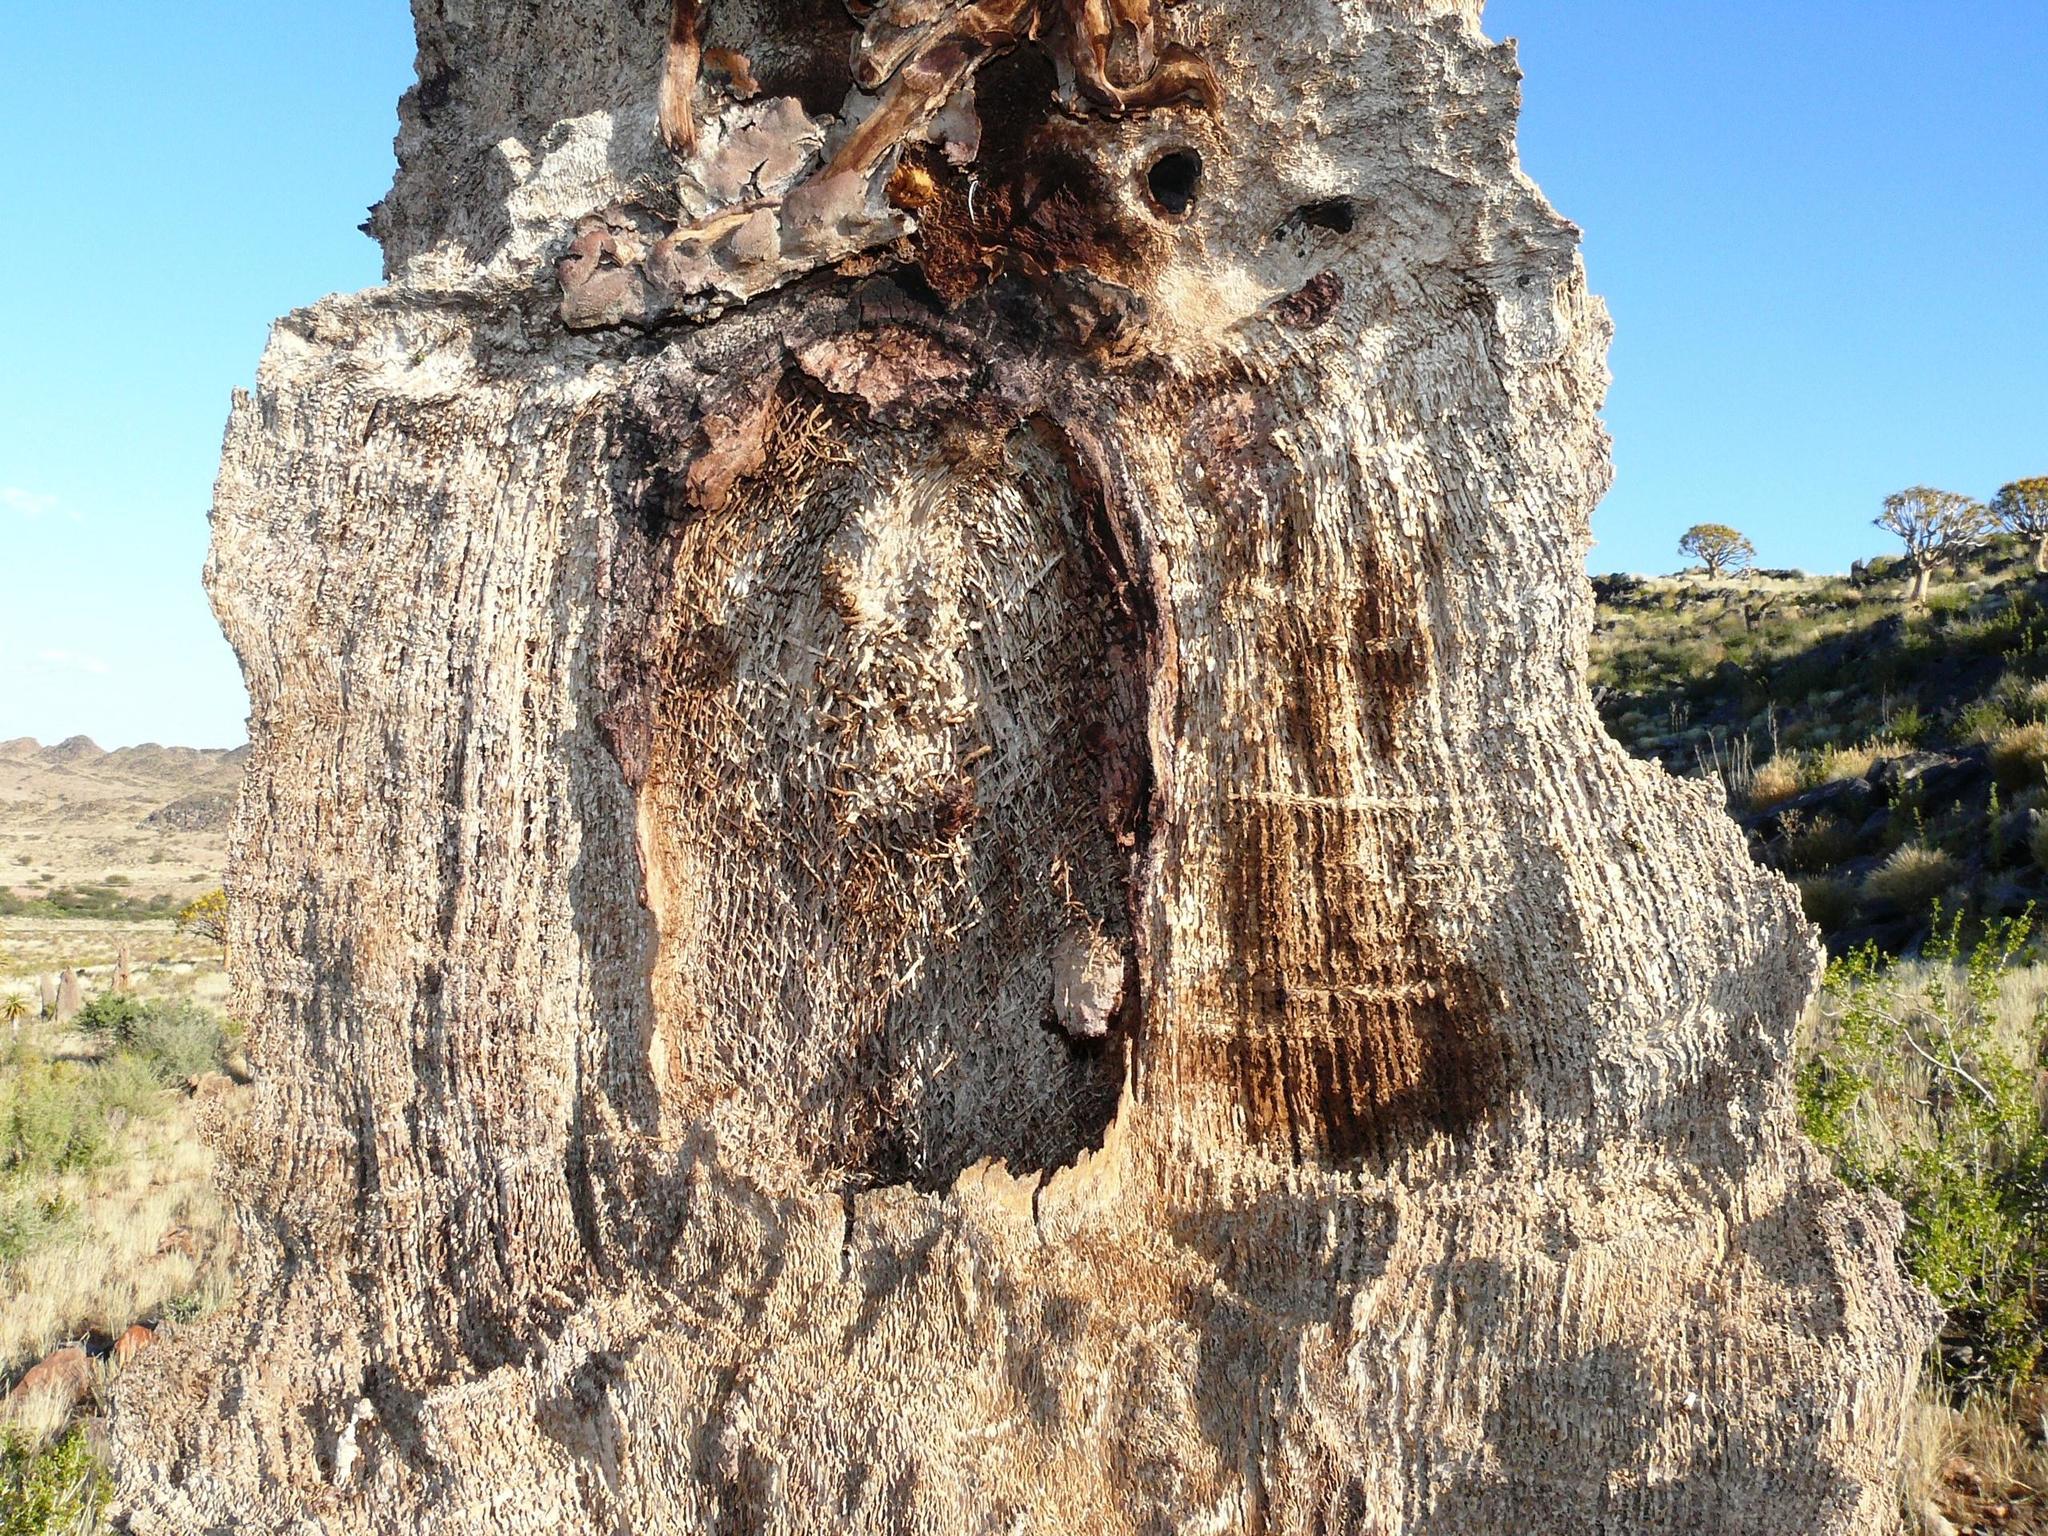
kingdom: Plantae
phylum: Tracheophyta
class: Liliopsida
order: Asparagales
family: Asphodelaceae
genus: Aloidendron
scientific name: Aloidendron dichotomum
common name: Quiver tree
